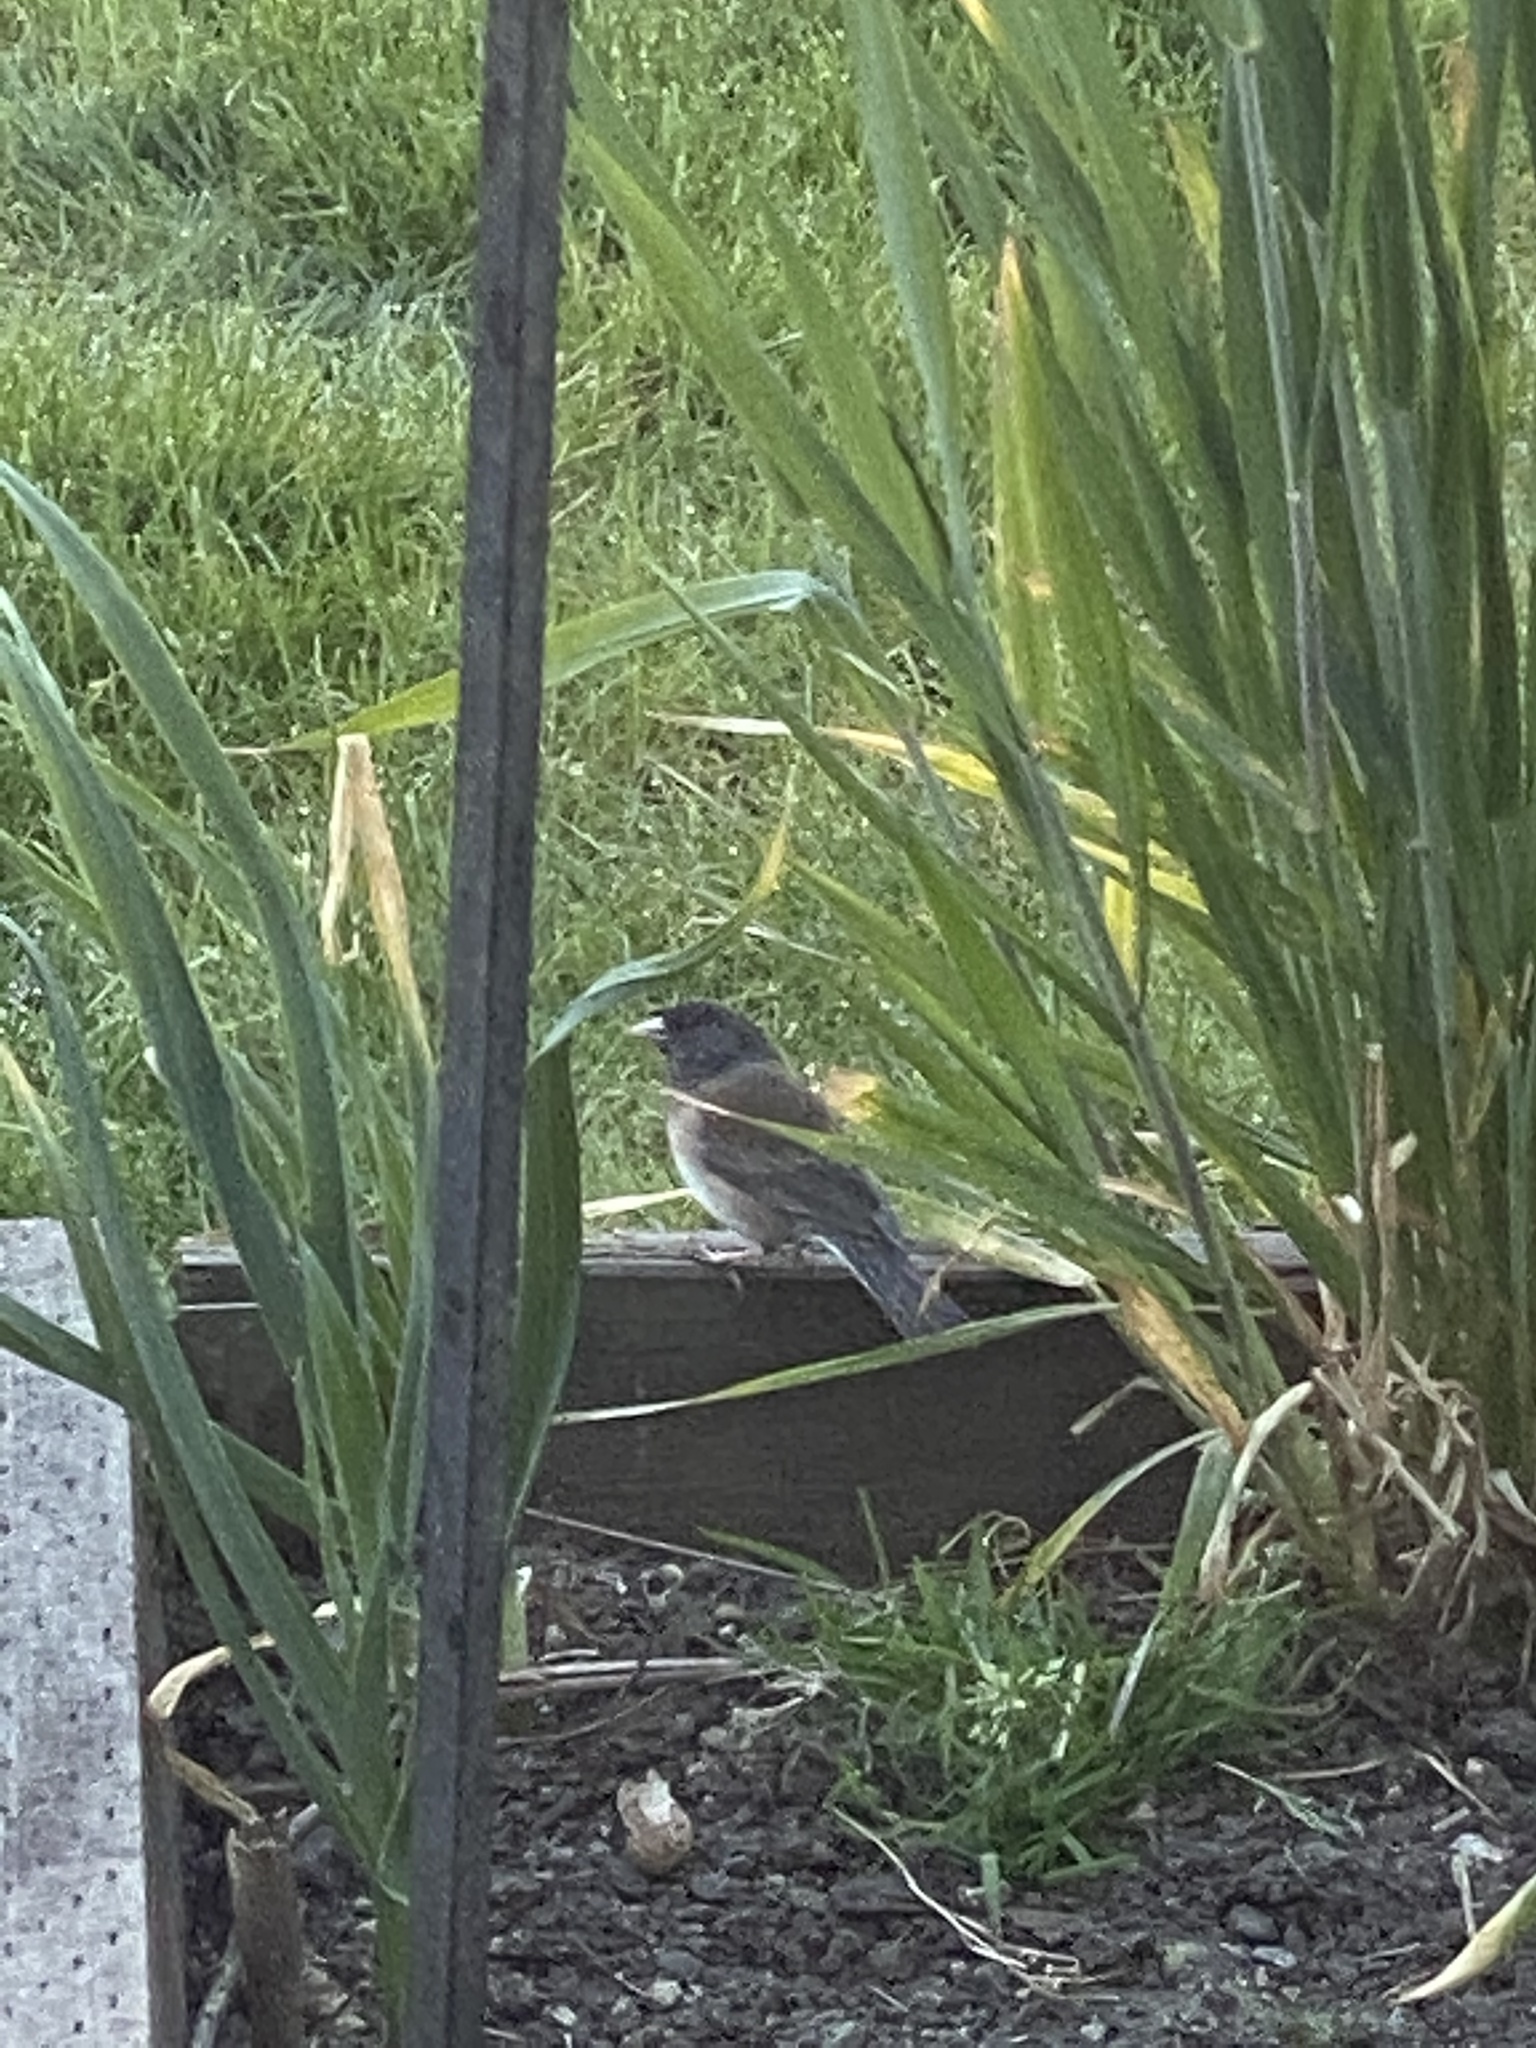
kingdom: Animalia
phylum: Chordata
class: Aves
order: Passeriformes
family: Passerellidae
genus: Junco
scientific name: Junco hyemalis
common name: Dark-eyed junco
